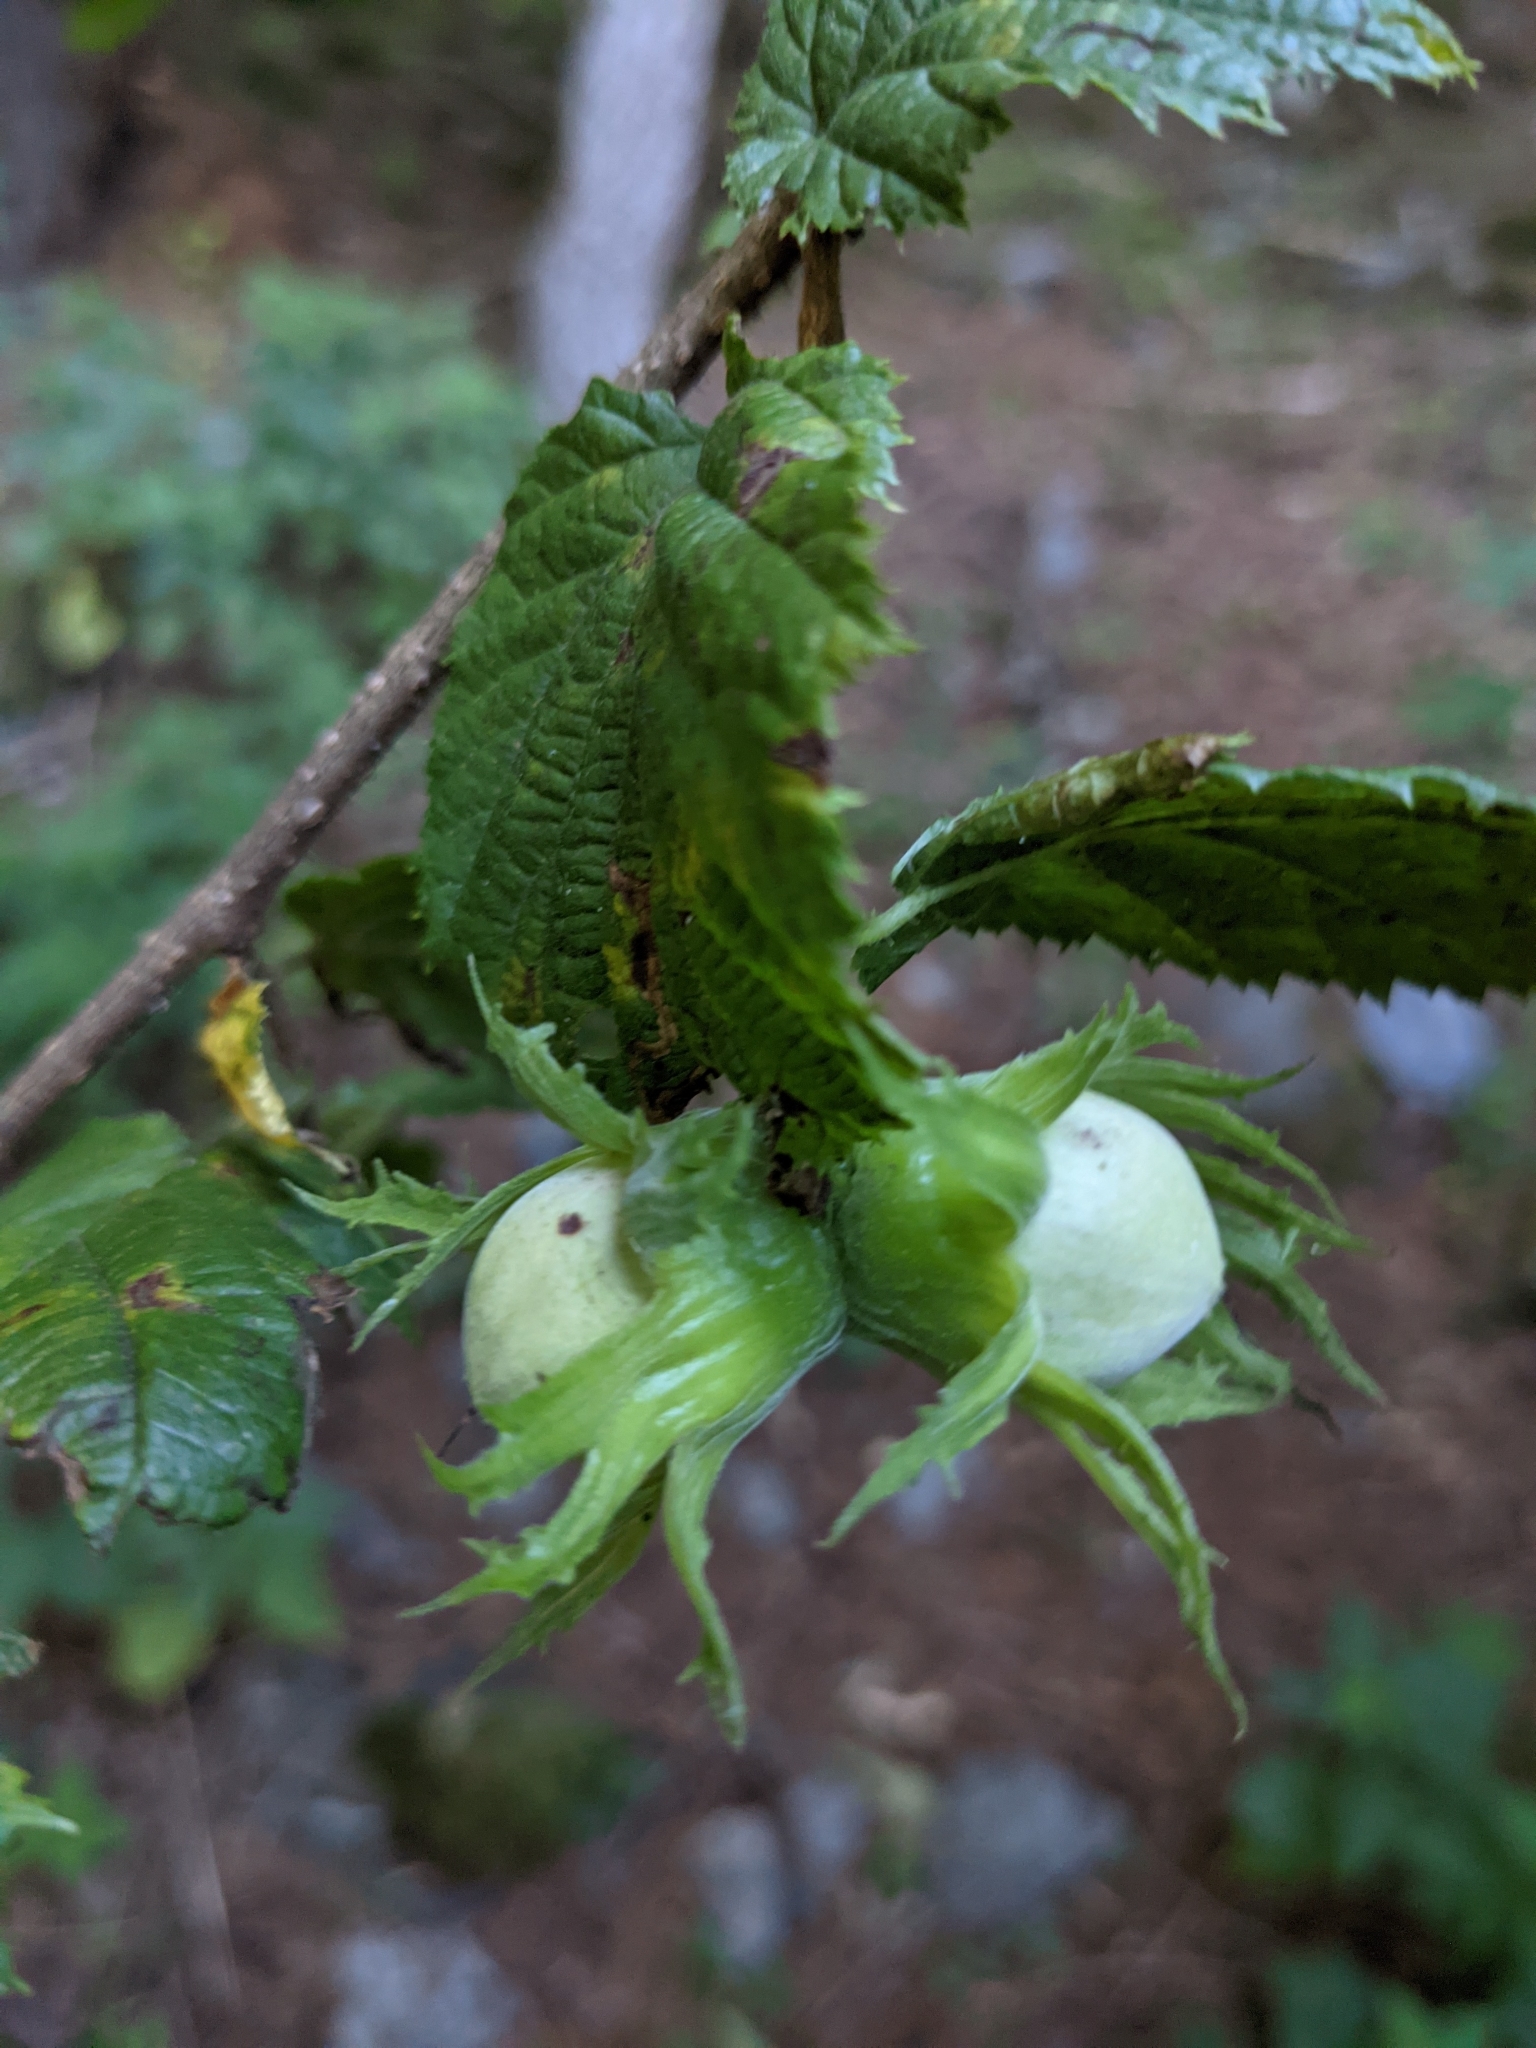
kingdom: Plantae
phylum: Tracheophyta
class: Magnoliopsida
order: Fagales
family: Betulaceae
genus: Corylus
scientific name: Corylus avellana
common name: European hazel
